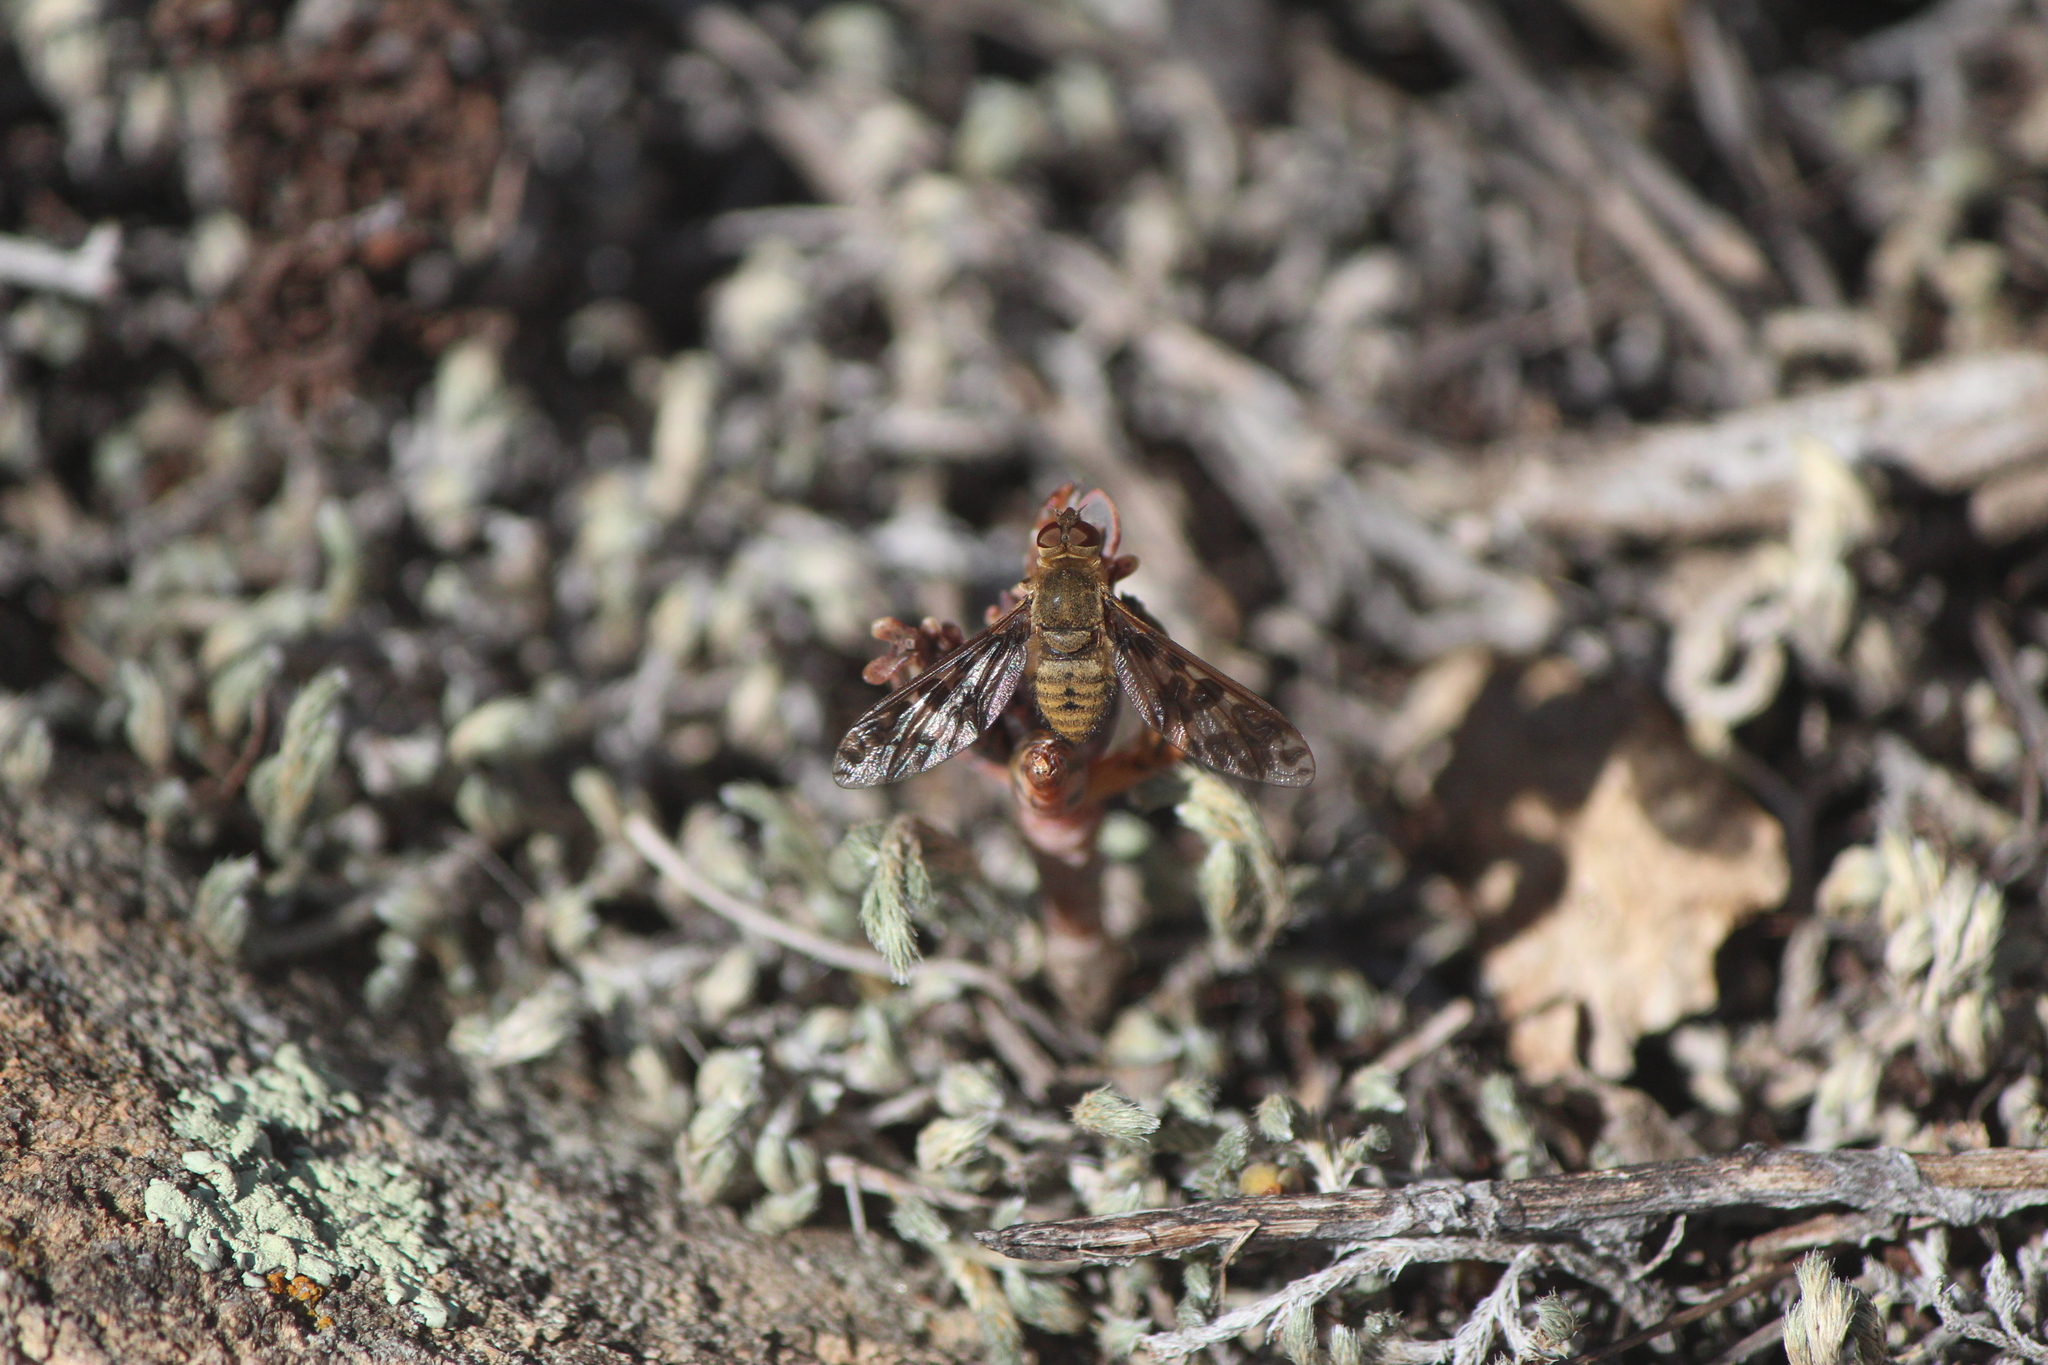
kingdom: Animalia
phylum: Arthropoda
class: Insecta
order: Diptera
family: Bombyliidae
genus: Dipalta
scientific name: Dipalta serpentina
